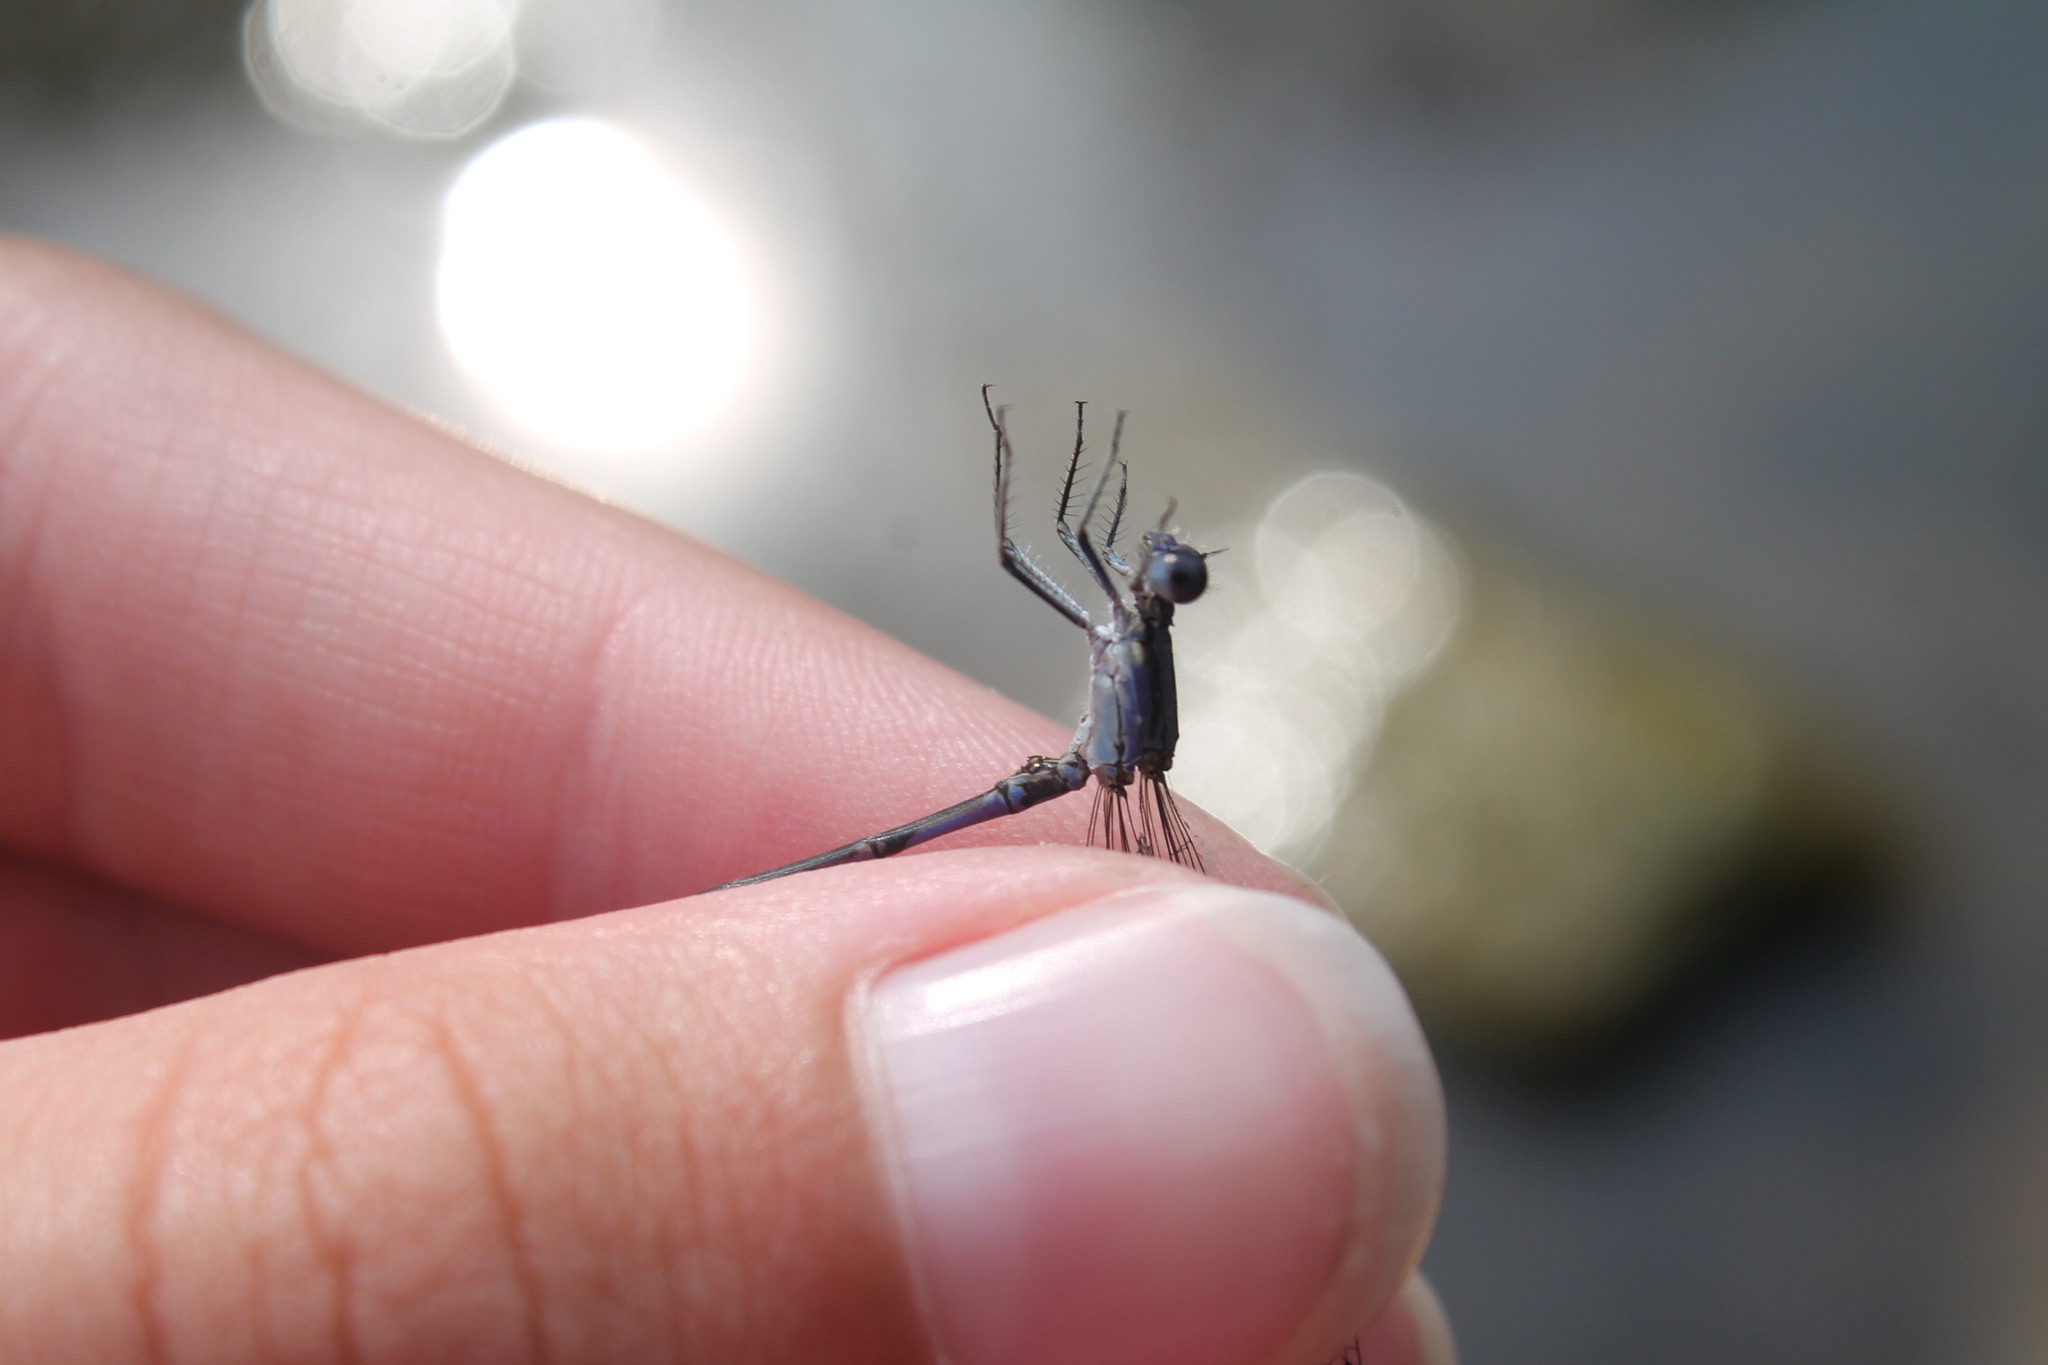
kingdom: Animalia
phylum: Arthropoda
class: Insecta
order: Odonata
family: Coenagrionidae
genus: Argia
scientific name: Argia fumipennis
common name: Variable dancer
